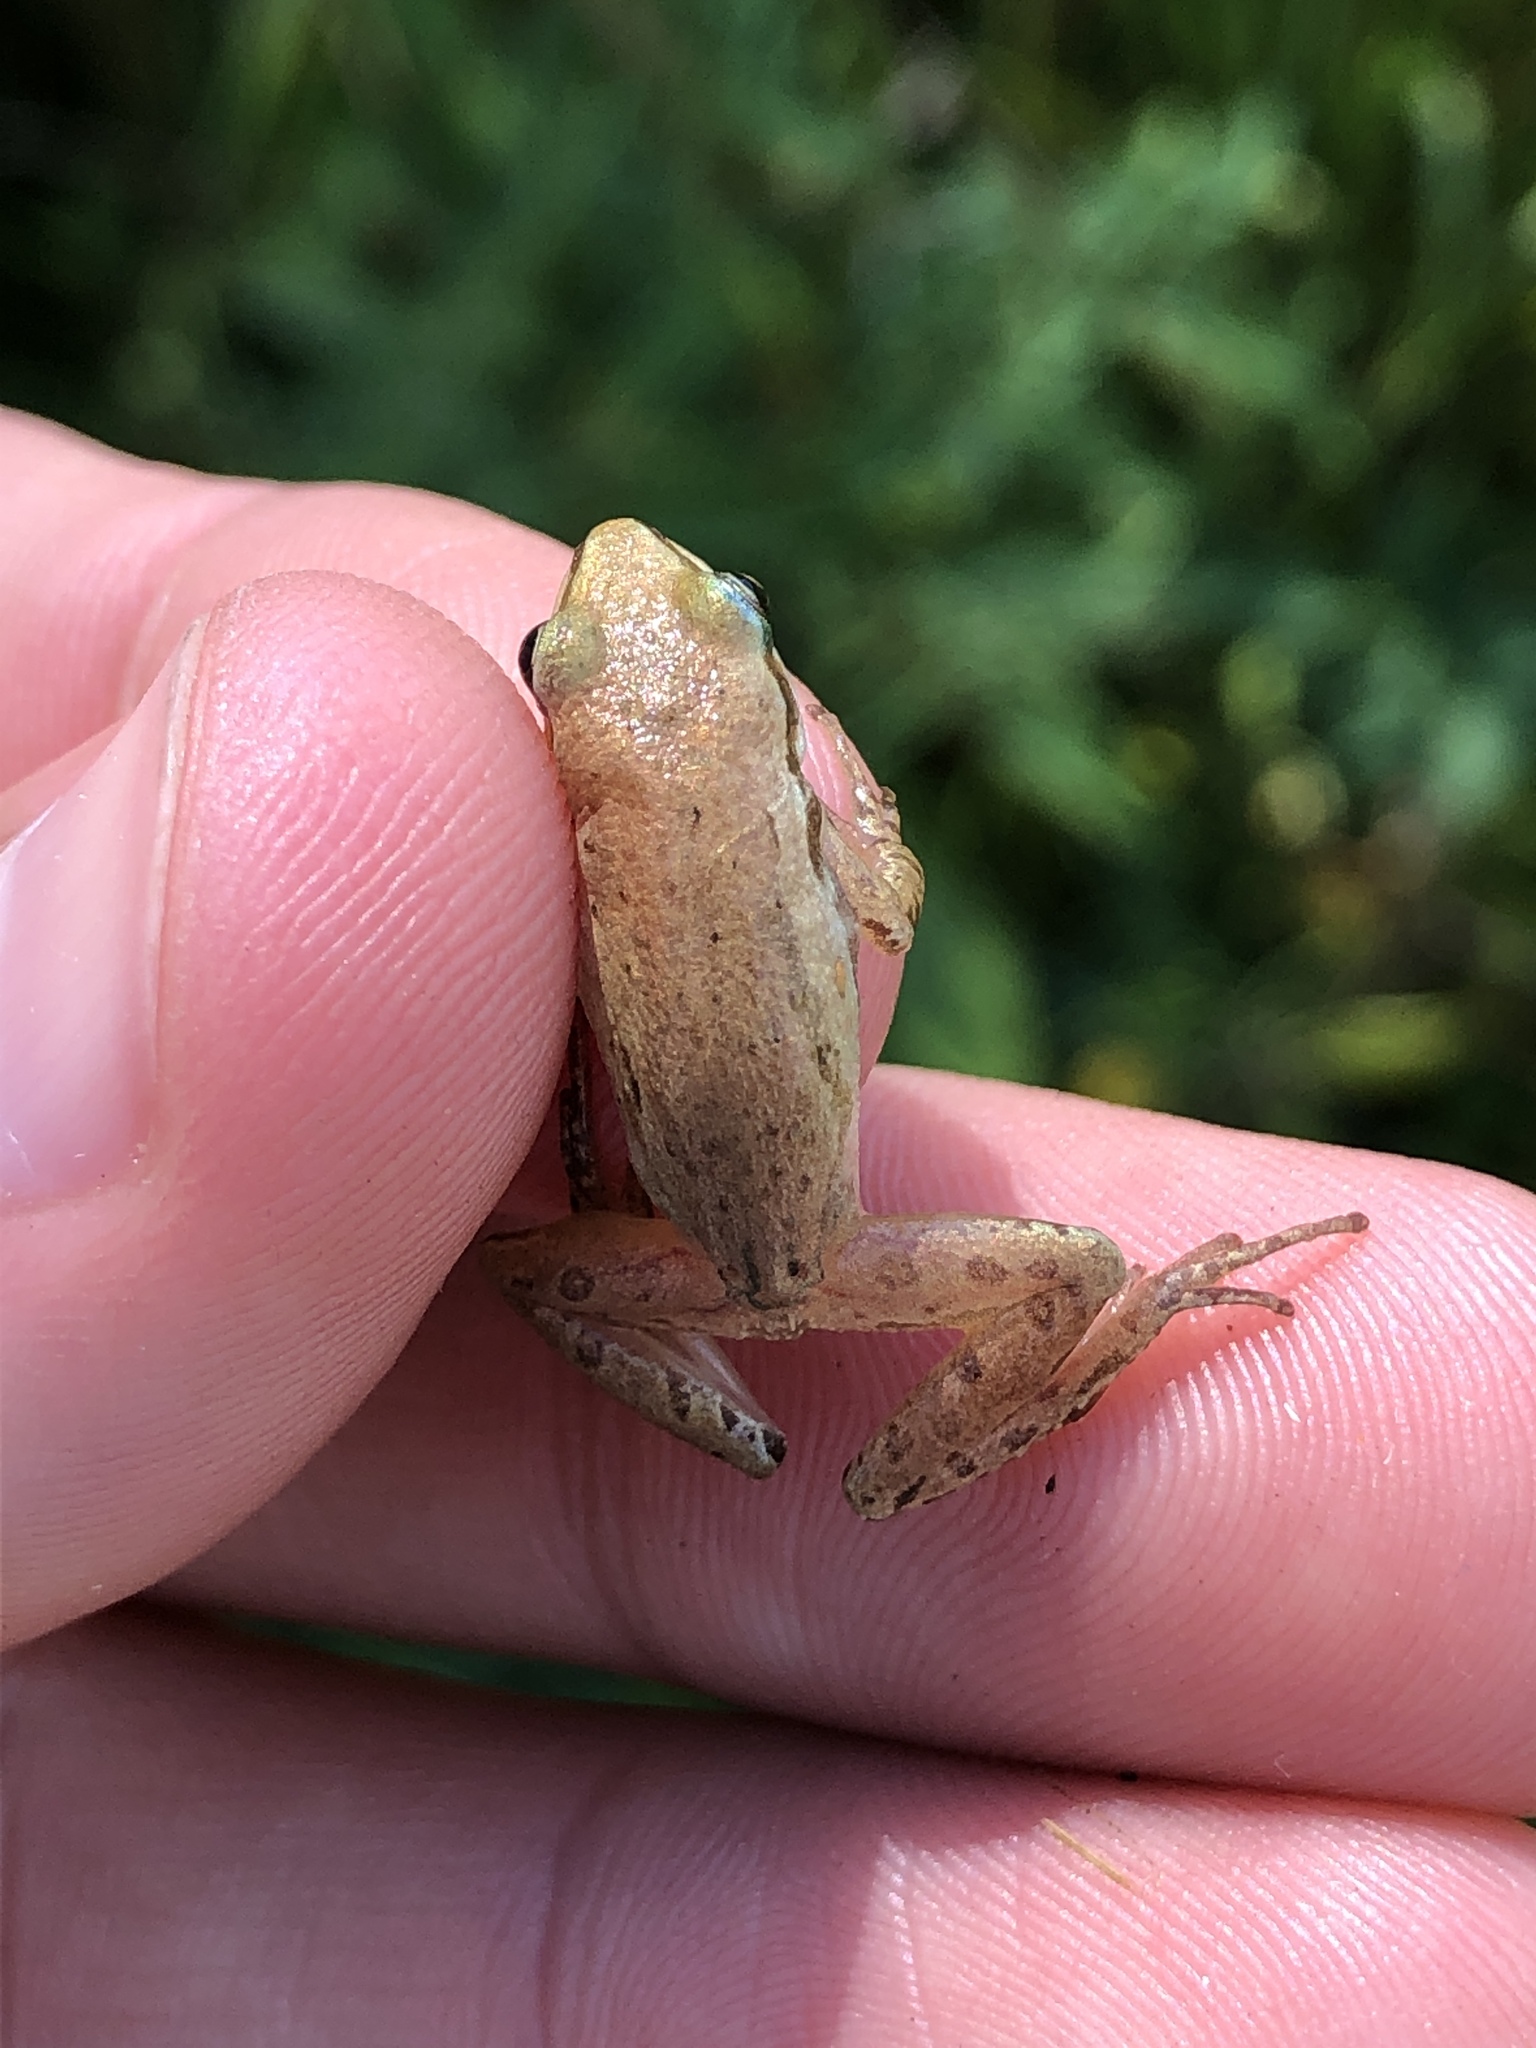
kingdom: Animalia
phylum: Chordata
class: Amphibia
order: Anura
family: Hylidae
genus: Pseudacris
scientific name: Pseudacris maculata
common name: Boreal chorus frog
